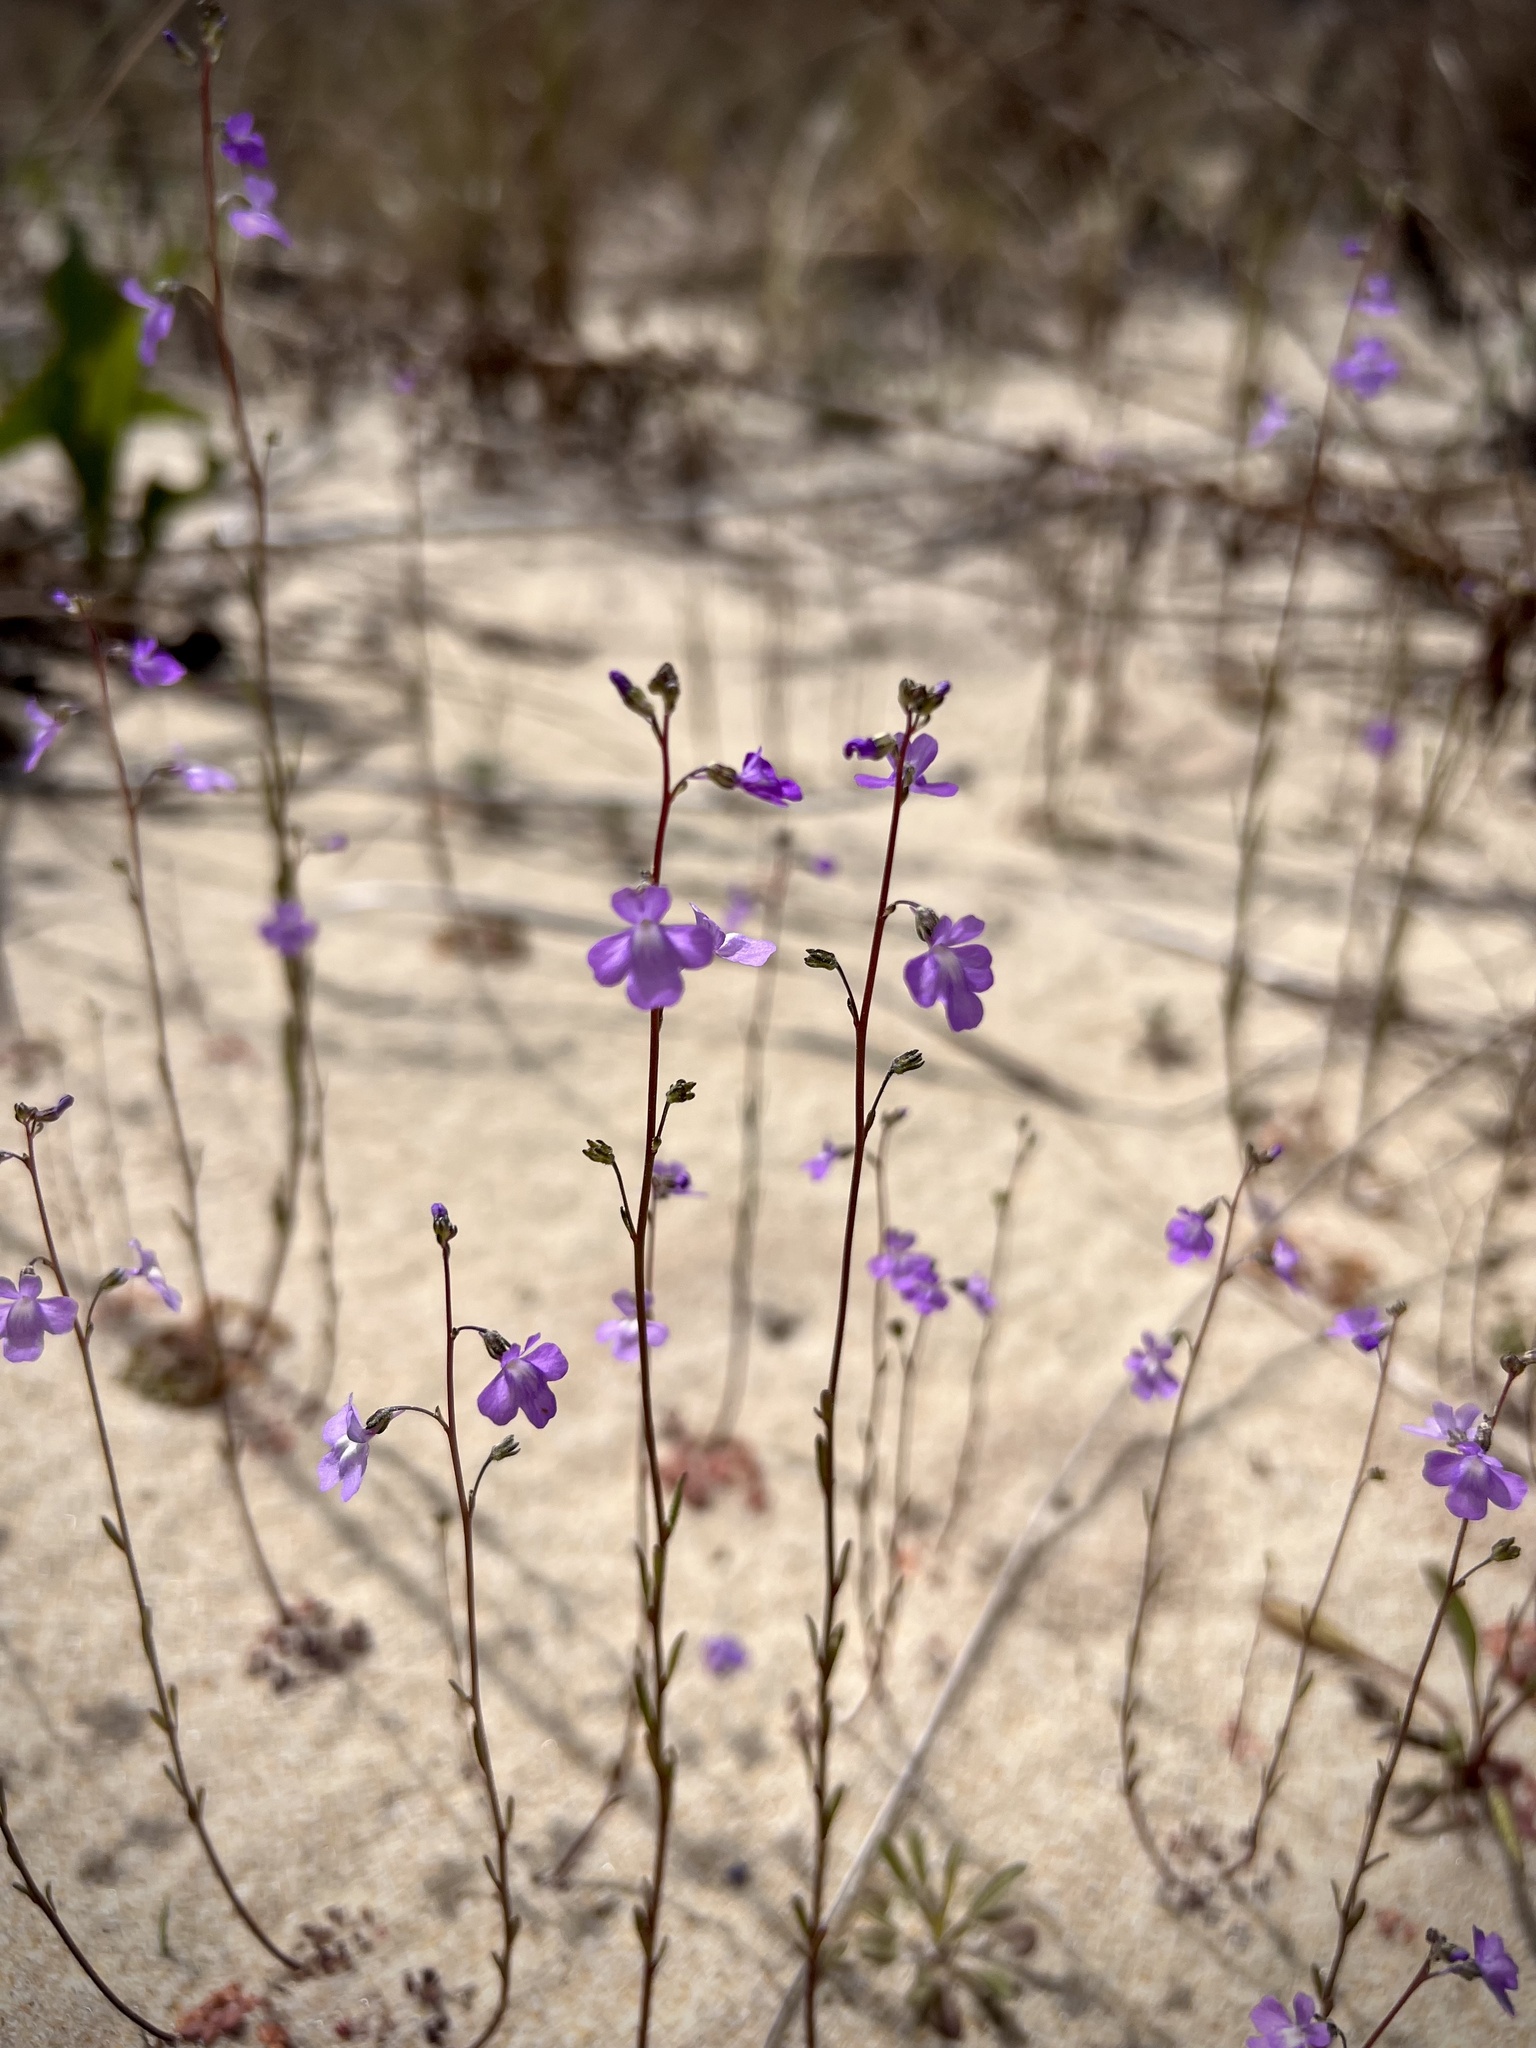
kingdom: Plantae
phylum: Tracheophyta
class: Magnoliopsida
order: Lamiales
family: Plantaginaceae
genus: Nuttallanthus
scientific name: Nuttallanthus canadensis
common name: Blue toadflax
